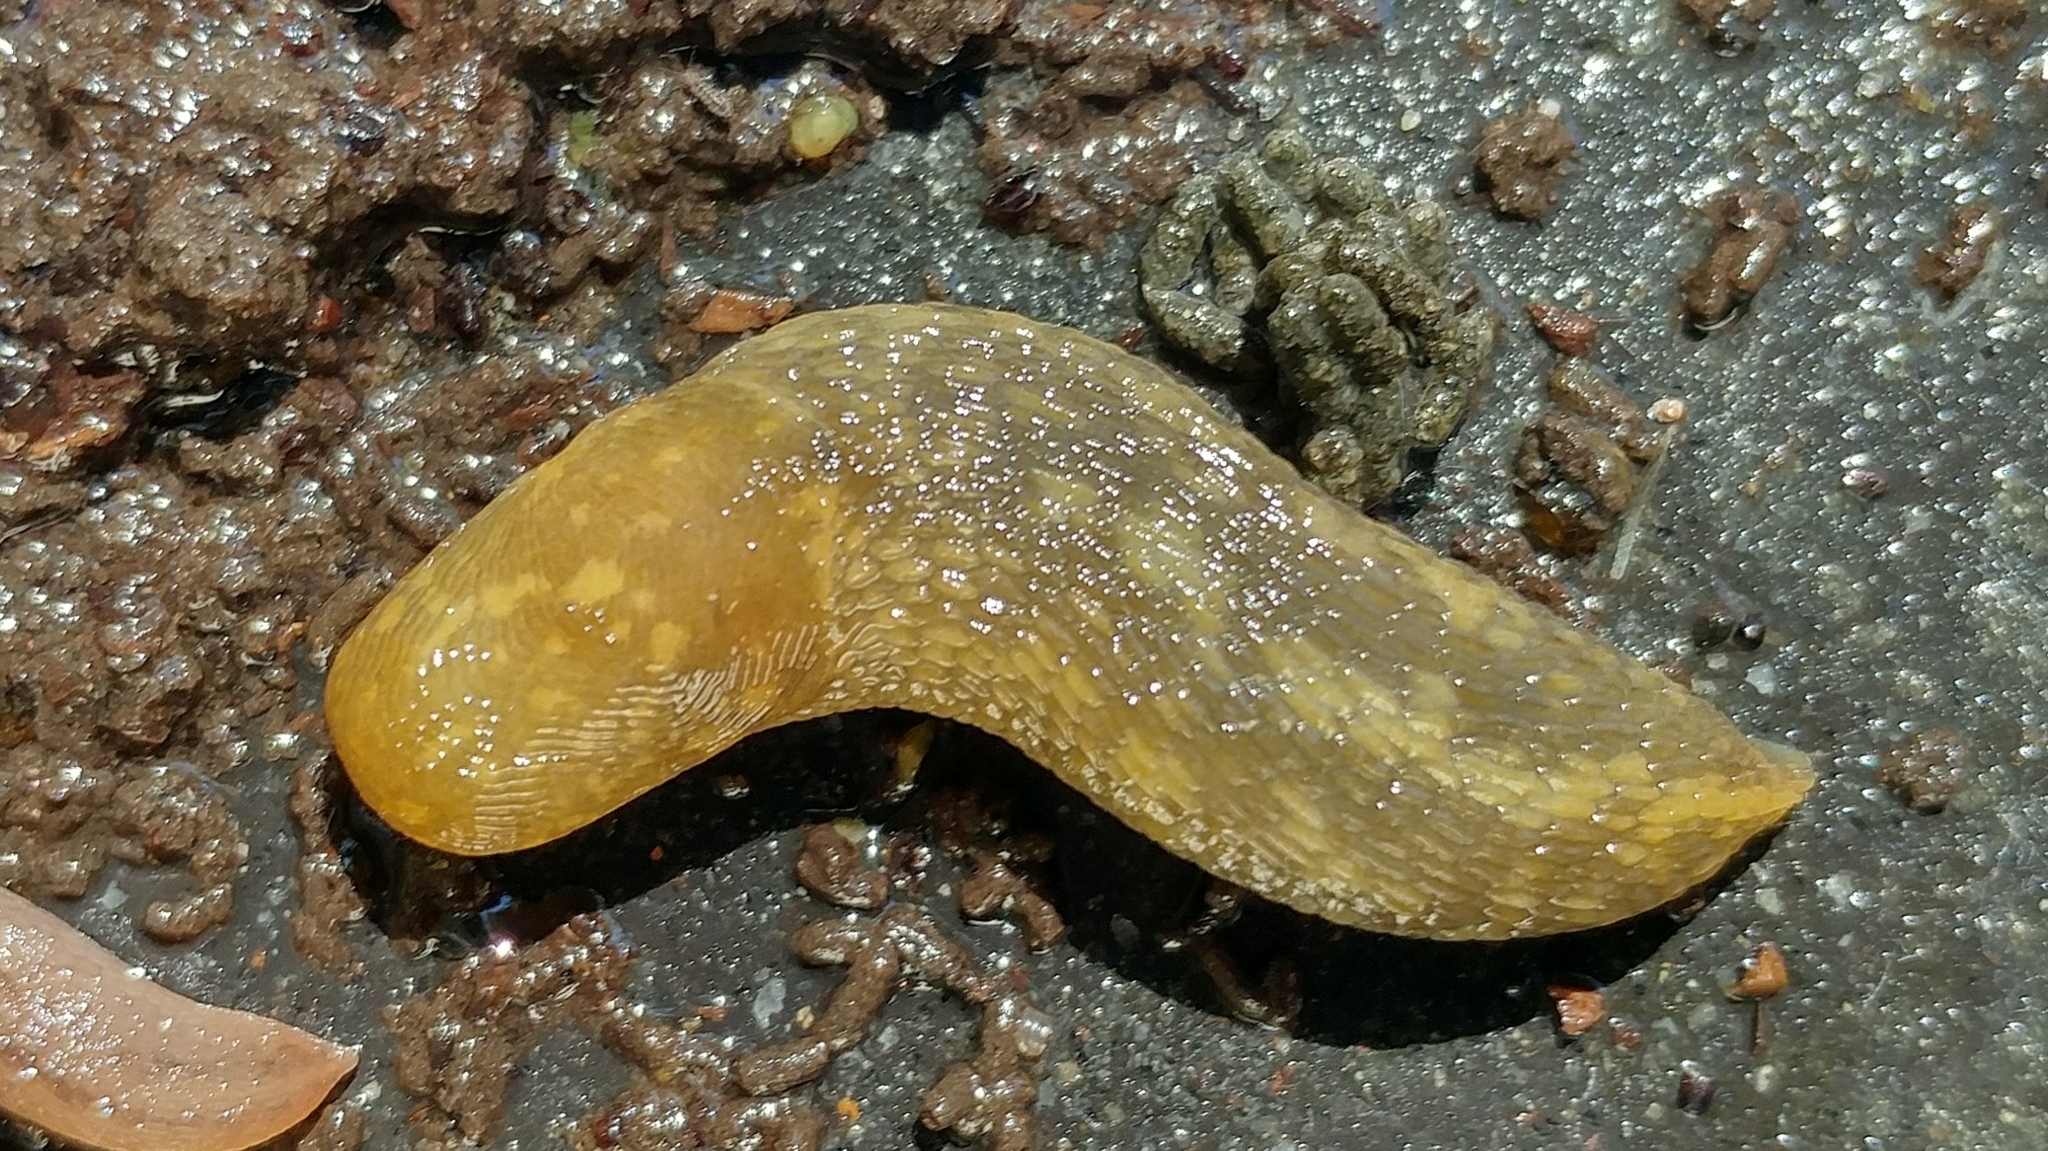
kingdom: Animalia
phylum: Mollusca
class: Gastropoda
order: Stylommatophora
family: Limacidae
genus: Limacus
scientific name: Limacus flavus
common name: Yellow gardenslug
